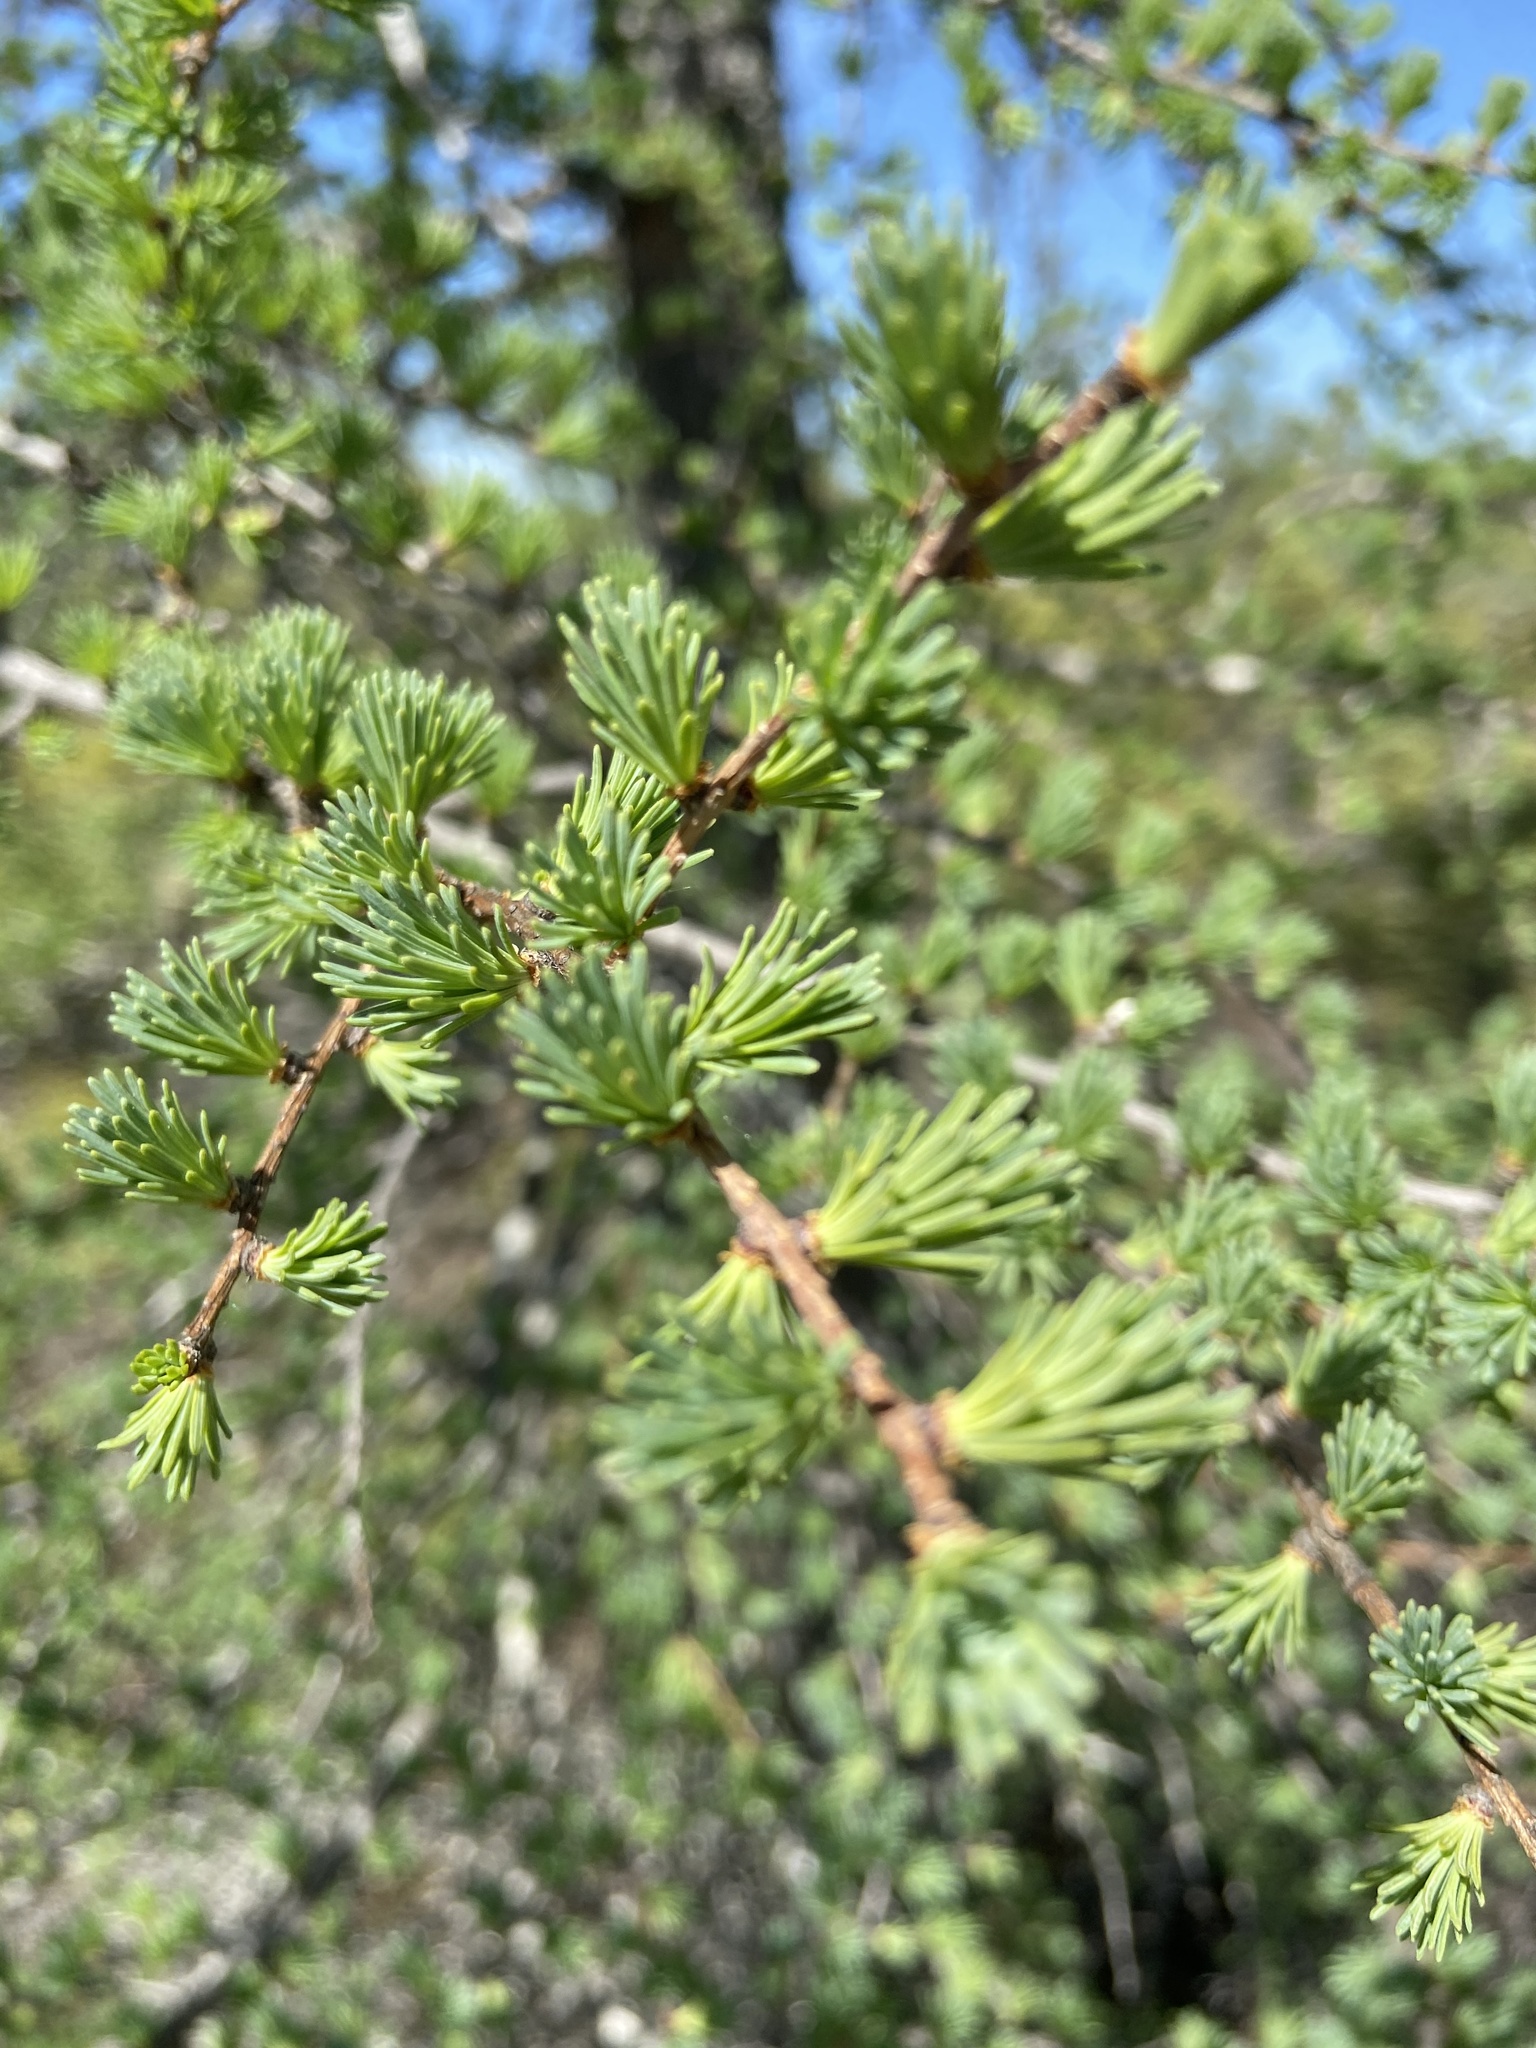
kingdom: Plantae
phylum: Tracheophyta
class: Pinopsida
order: Pinales
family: Pinaceae
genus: Larix
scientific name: Larix laricina
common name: American larch
